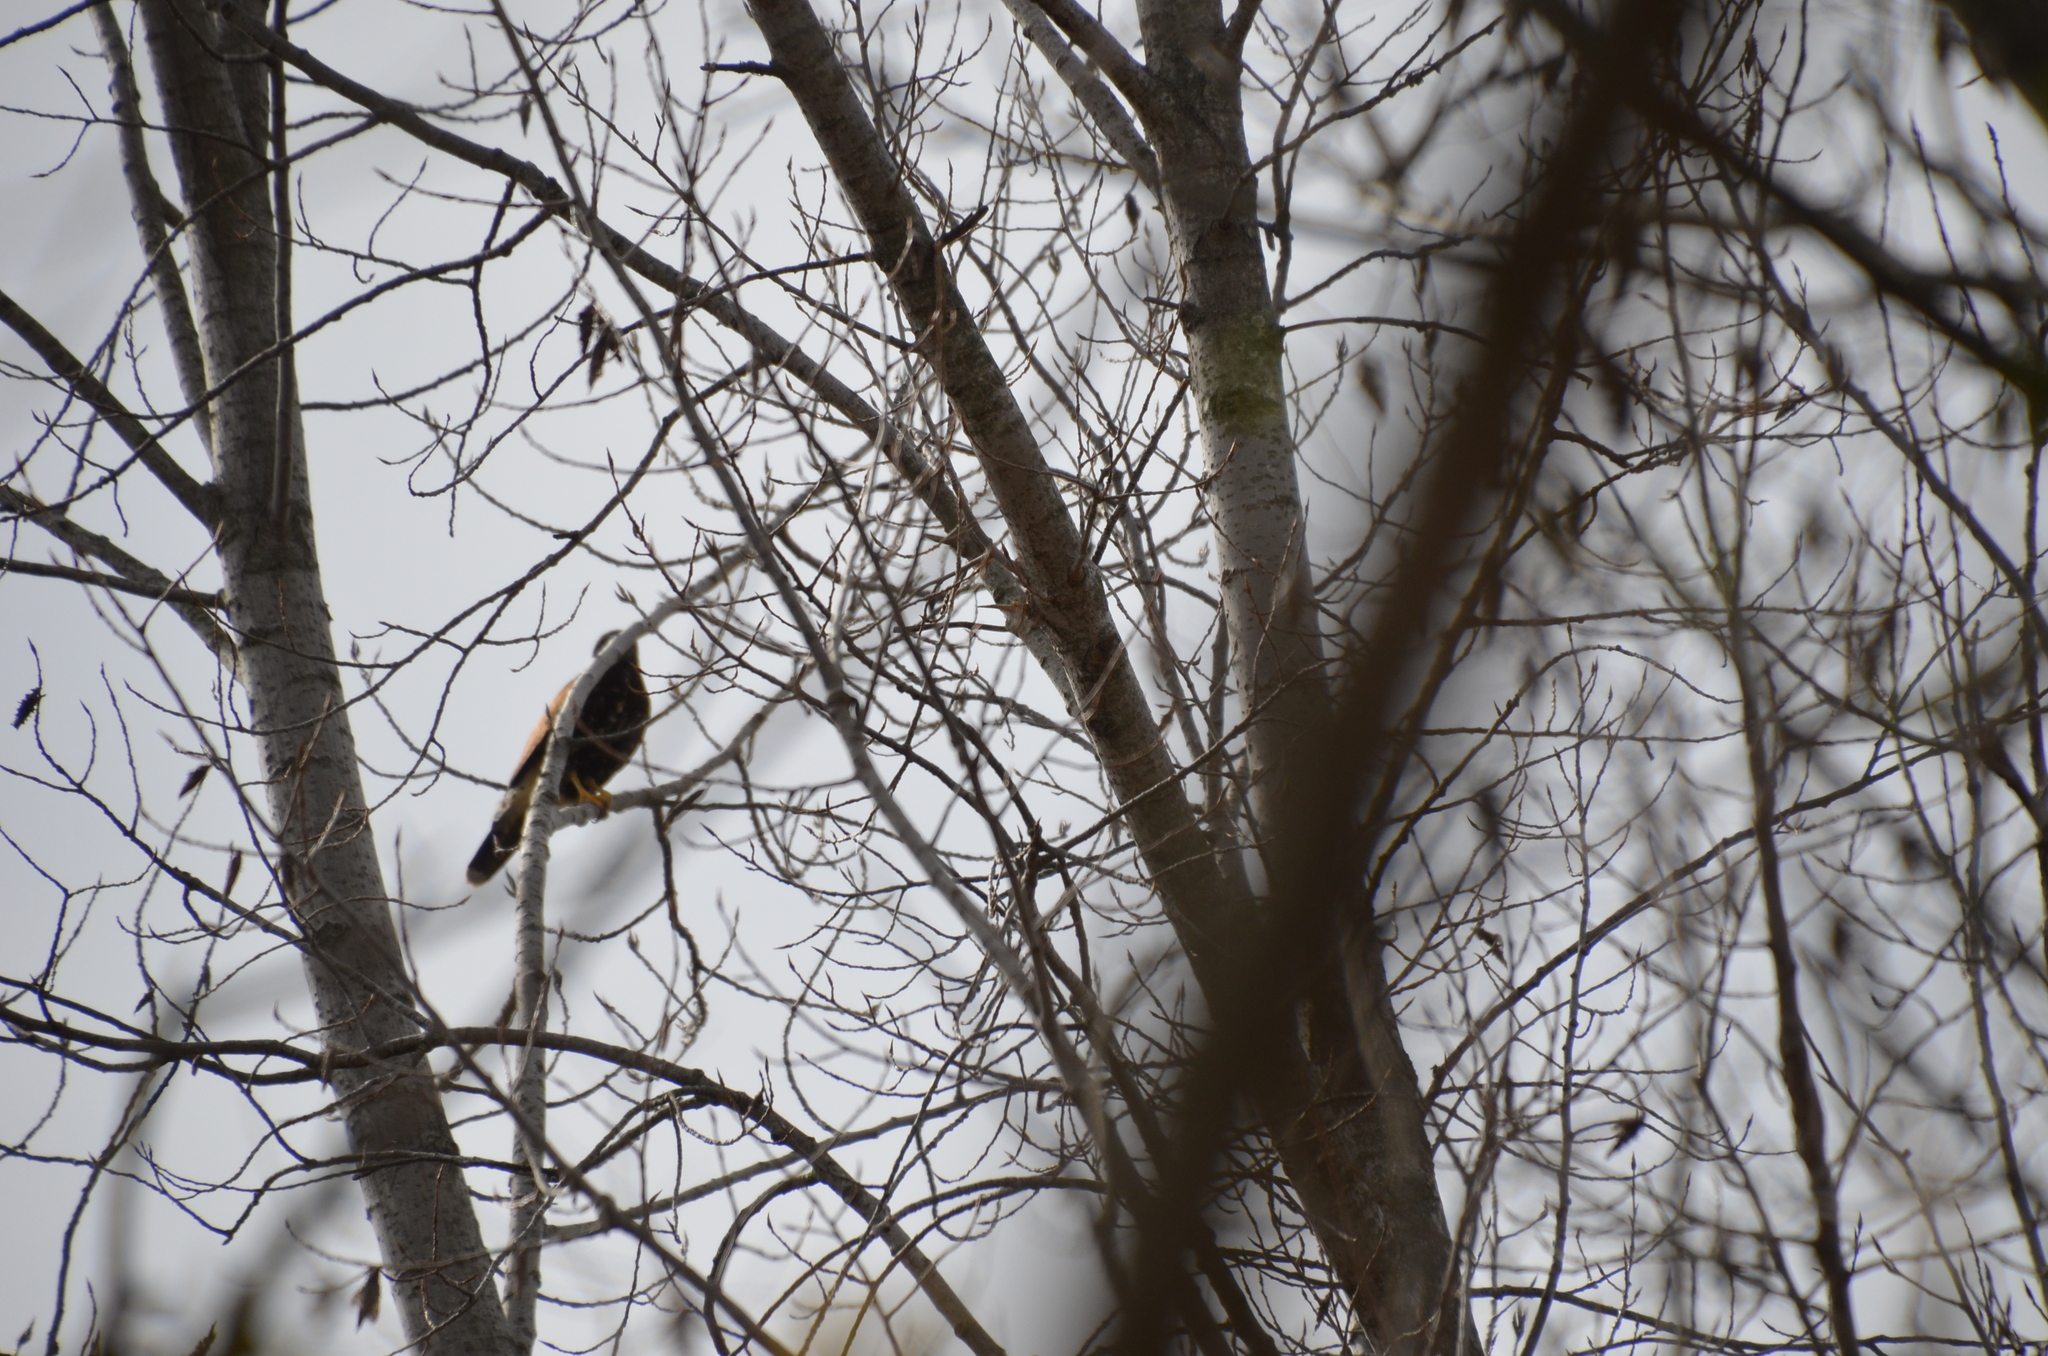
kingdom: Animalia
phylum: Chordata
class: Aves
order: Accipitriformes
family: Accipitridae
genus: Parabuteo
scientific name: Parabuteo unicinctus
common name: Harris's hawk
